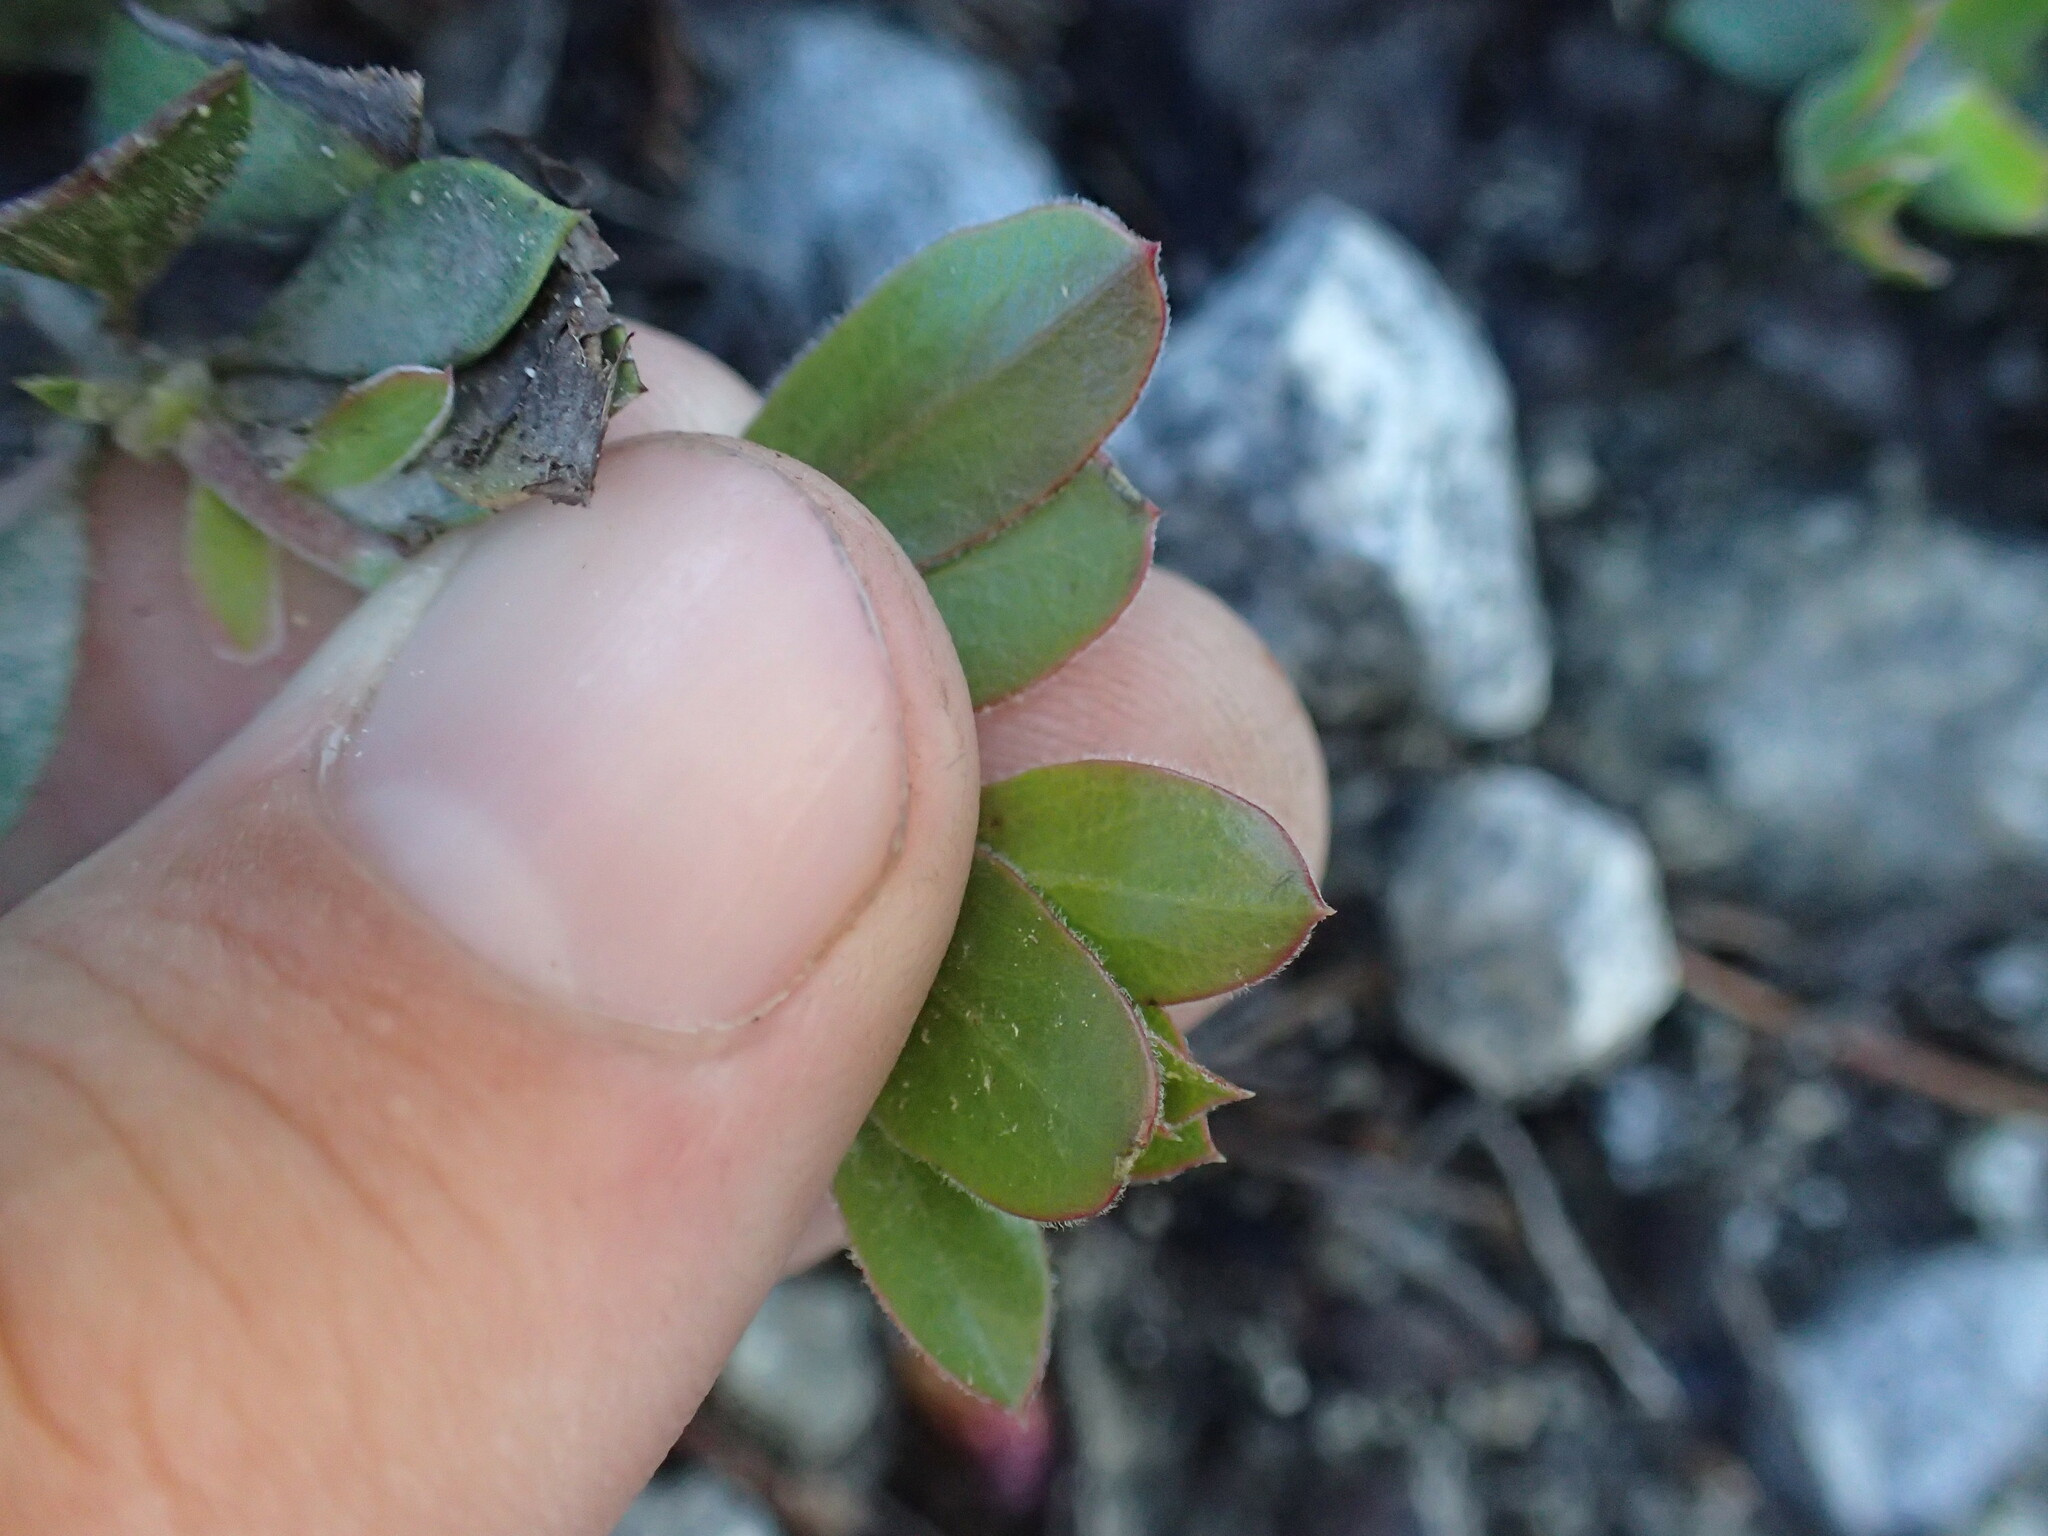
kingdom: Plantae
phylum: Tracheophyta
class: Magnoliopsida
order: Ericales
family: Ericaceae
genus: Arctostaphylos
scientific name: Arctostaphylos nevadensis
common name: Pinemat manzanita
